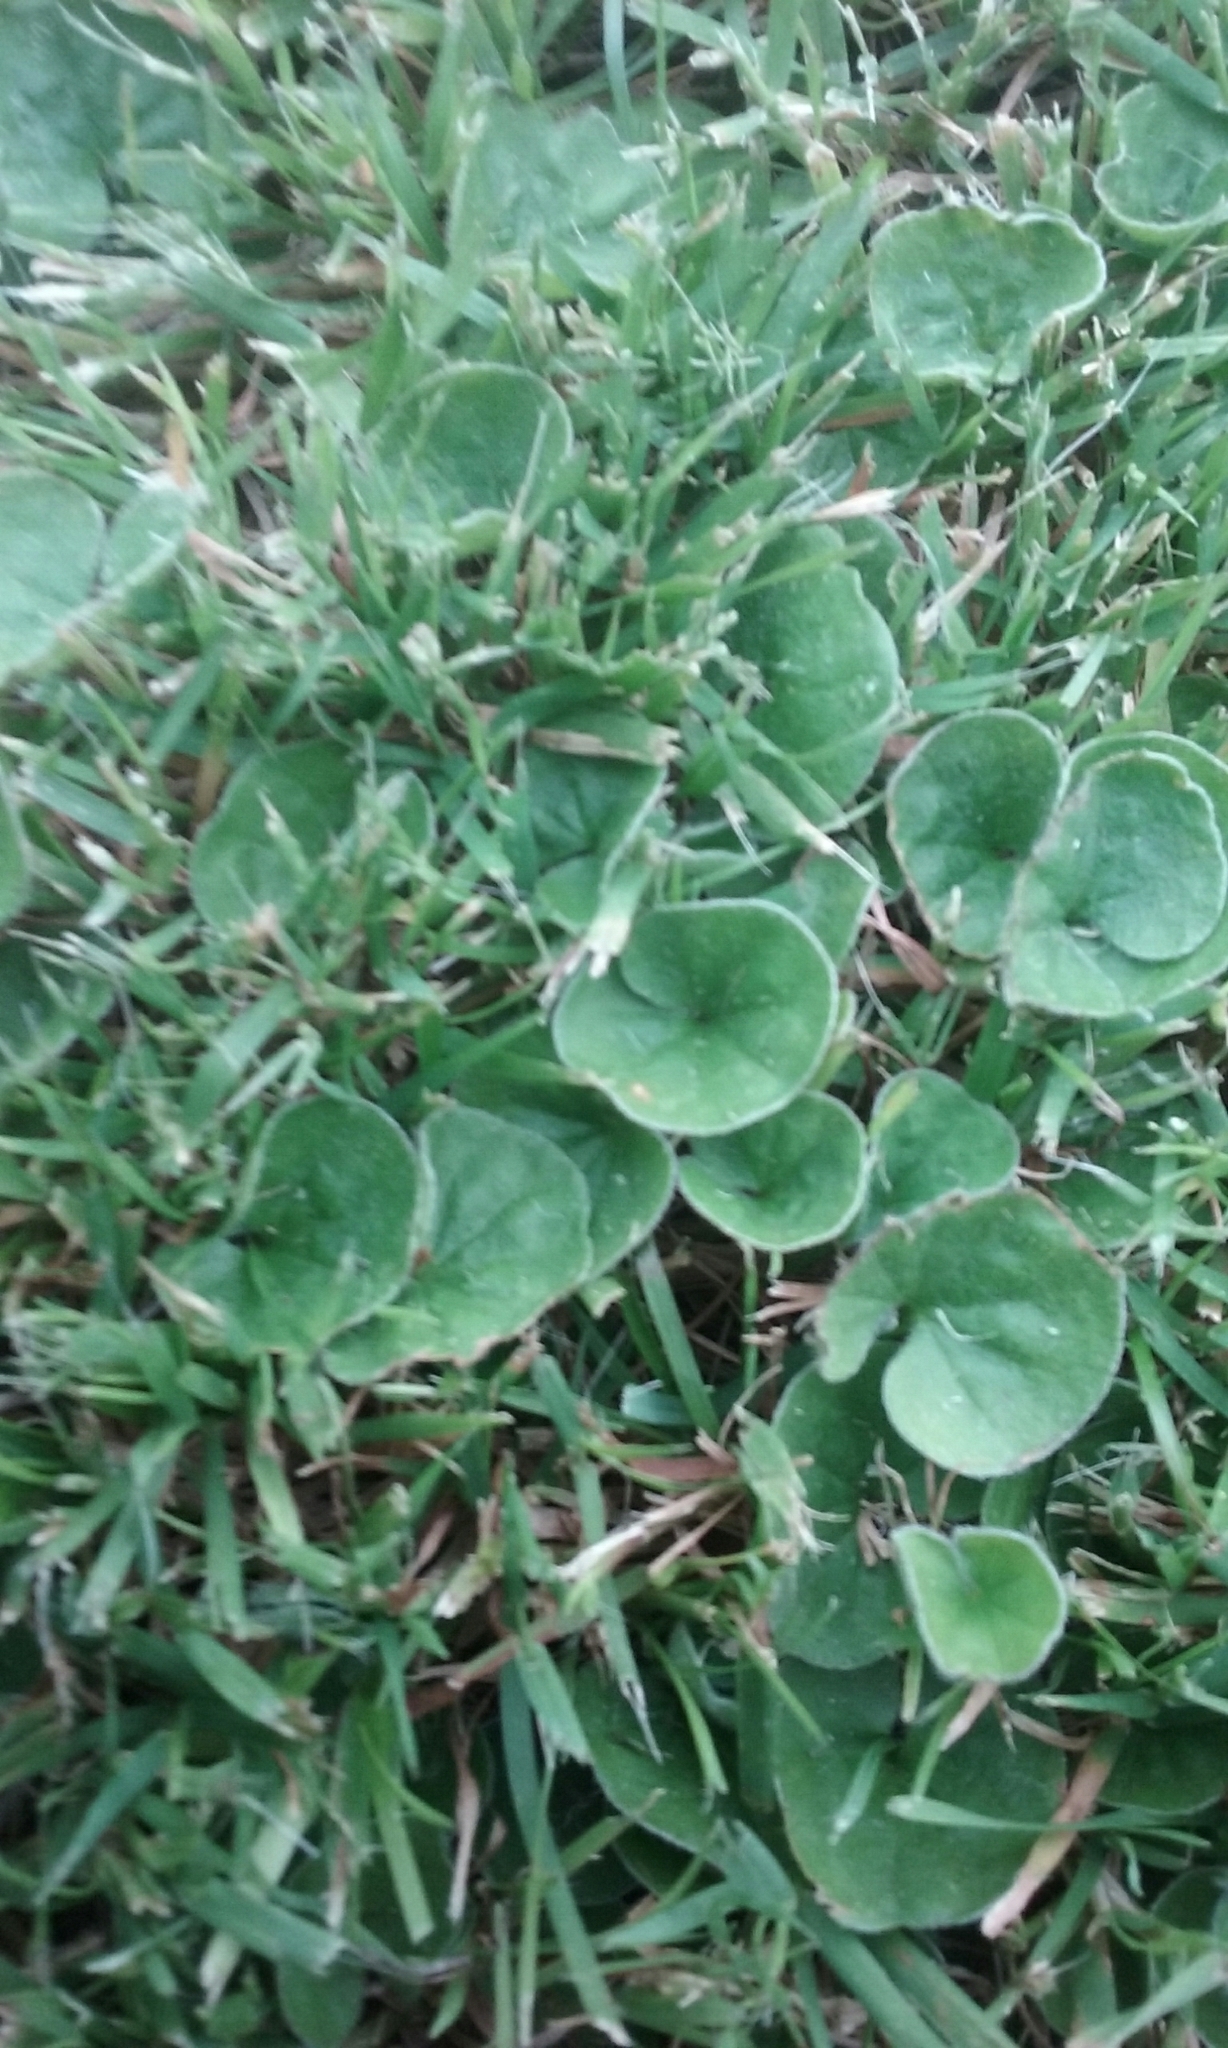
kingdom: Plantae
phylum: Tracheophyta
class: Magnoliopsida
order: Solanales
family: Convolvulaceae
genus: Dichondra
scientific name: Dichondra repens
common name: Kidneyweed
